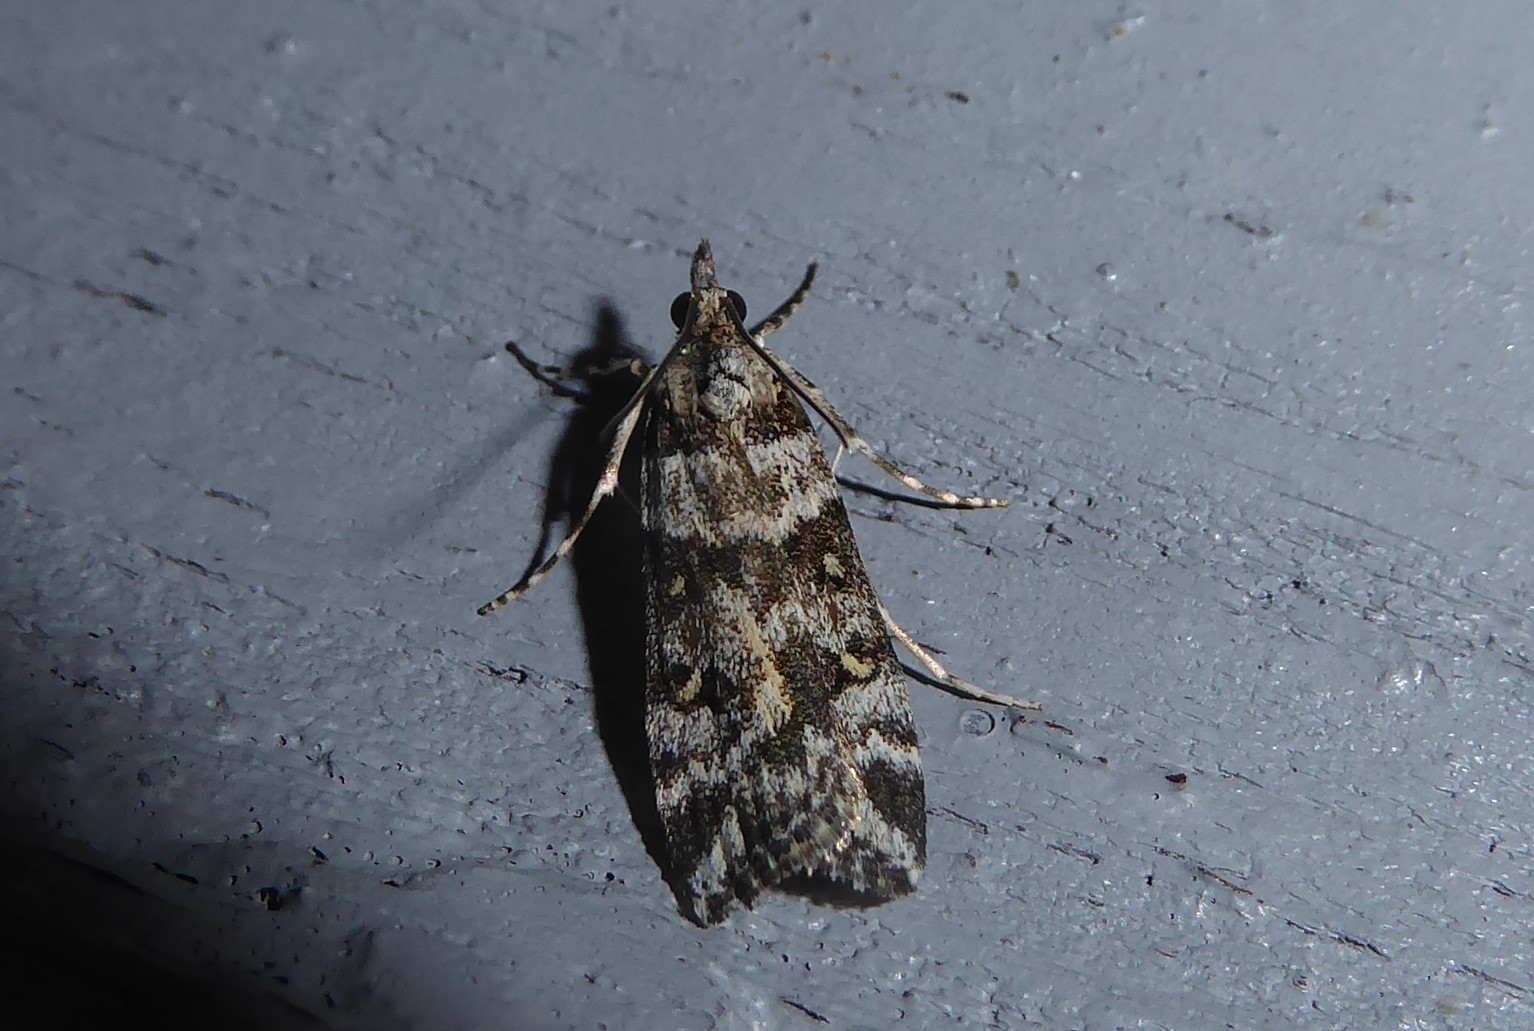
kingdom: Animalia
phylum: Arthropoda
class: Insecta
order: Lepidoptera
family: Crambidae
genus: Eudonia
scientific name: Eudonia diphtheralis
